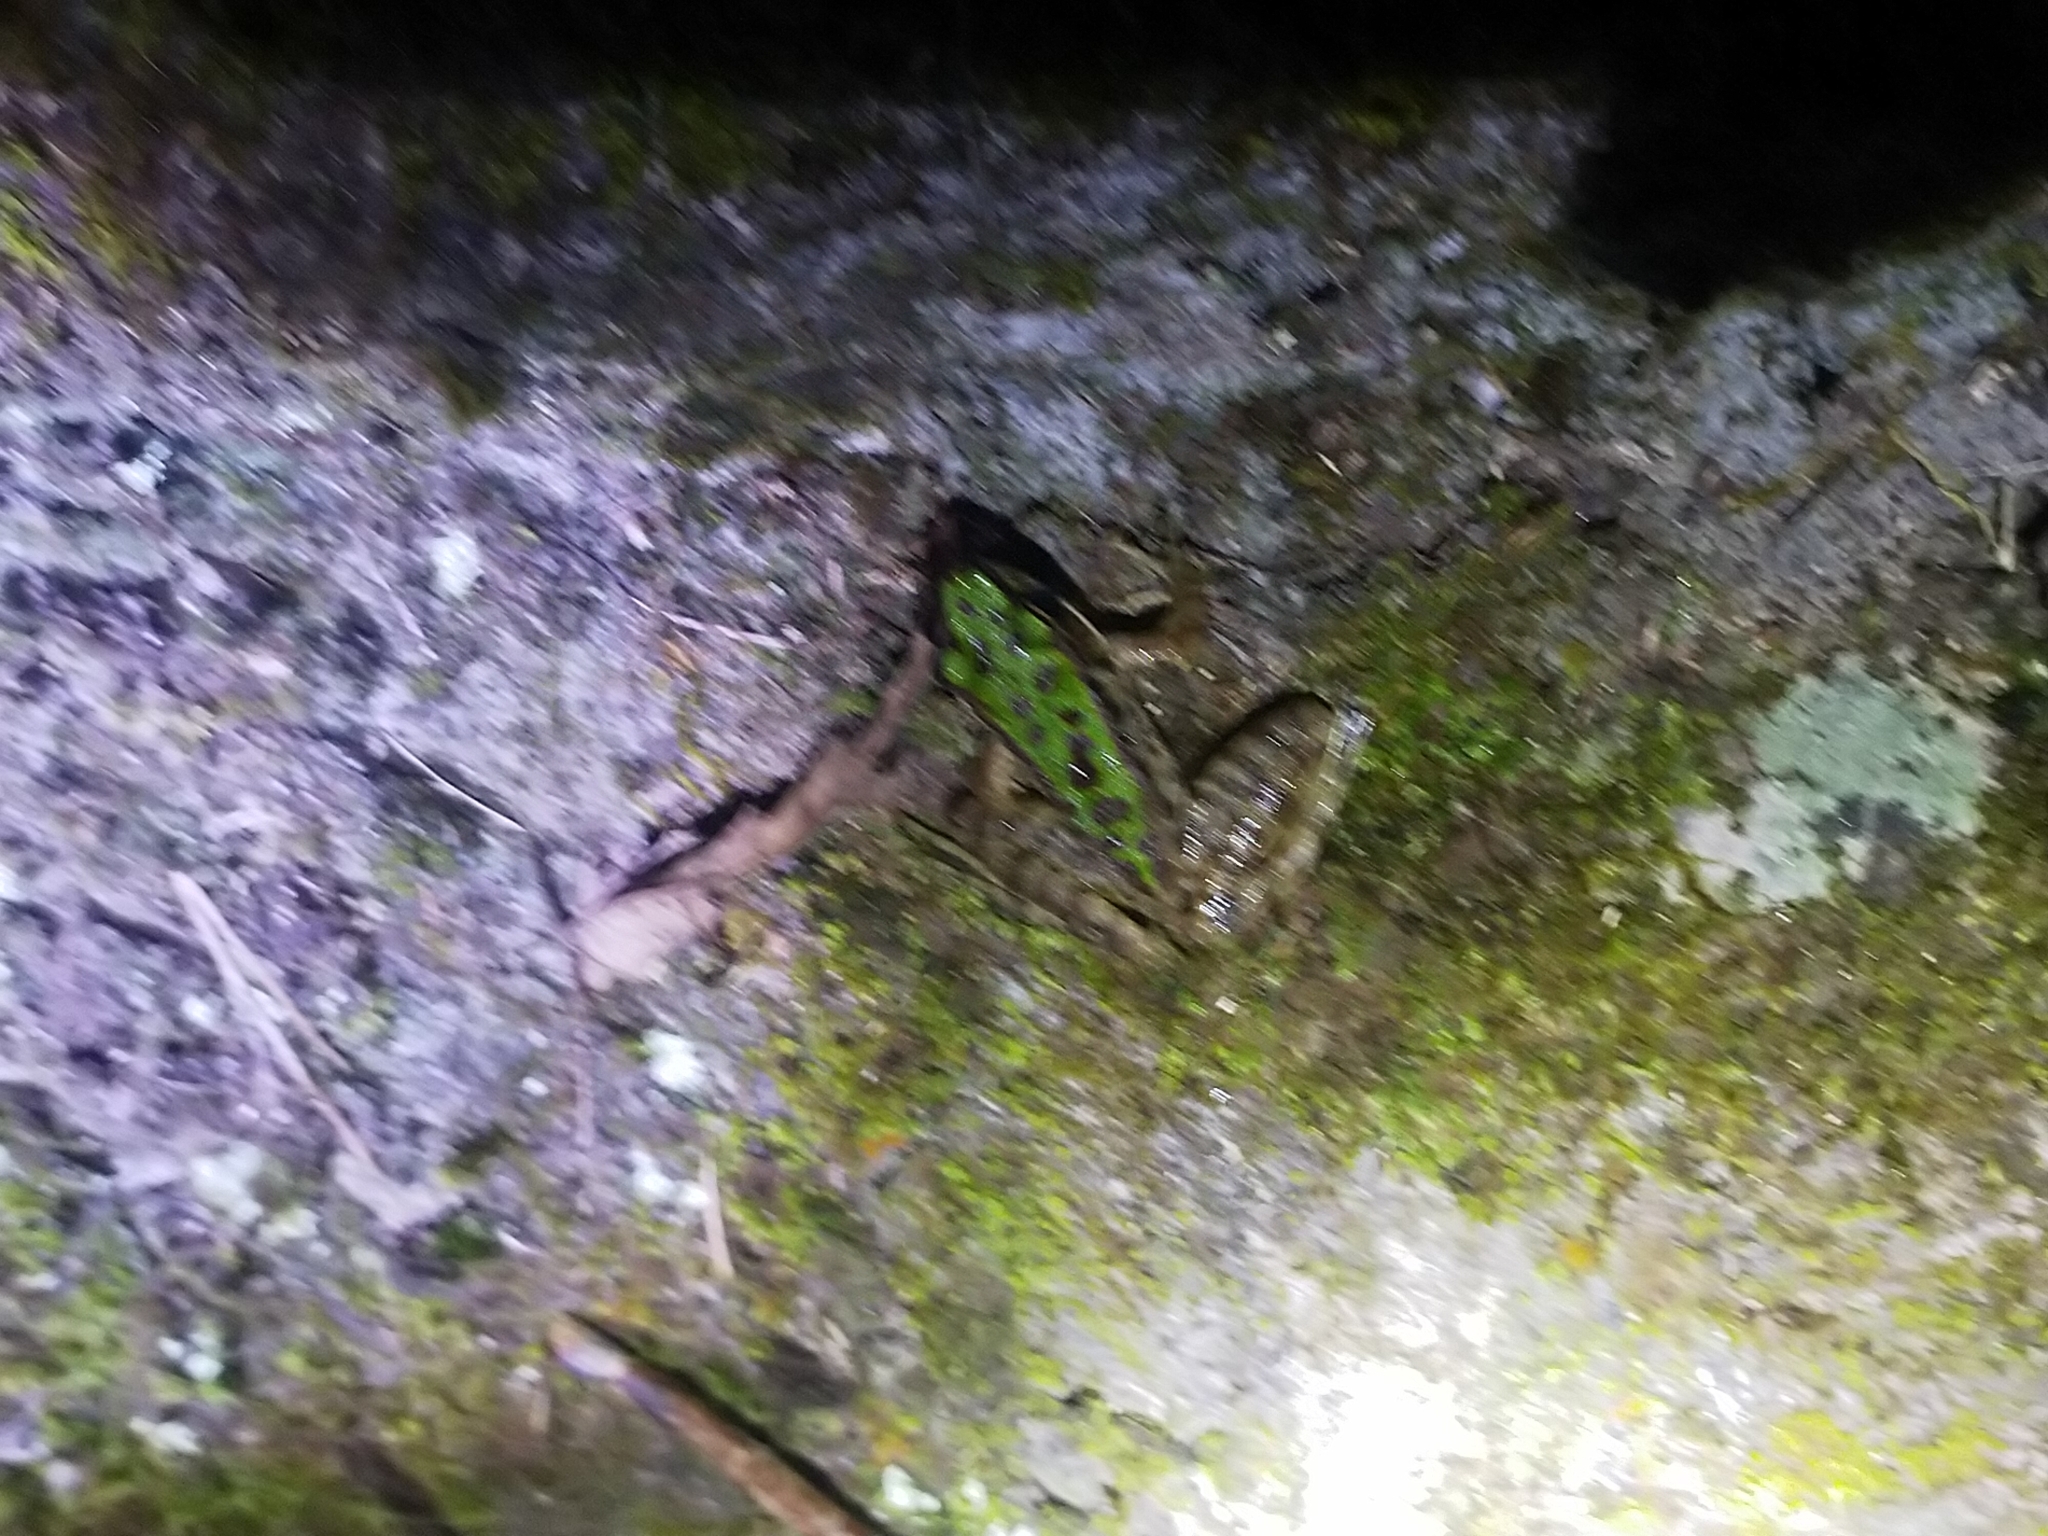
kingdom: Animalia
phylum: Chordata
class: Amphibia
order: Anura
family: Ranidae
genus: Odorrana
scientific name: Odorrana swinhoana
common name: Bangkimtsing frog
